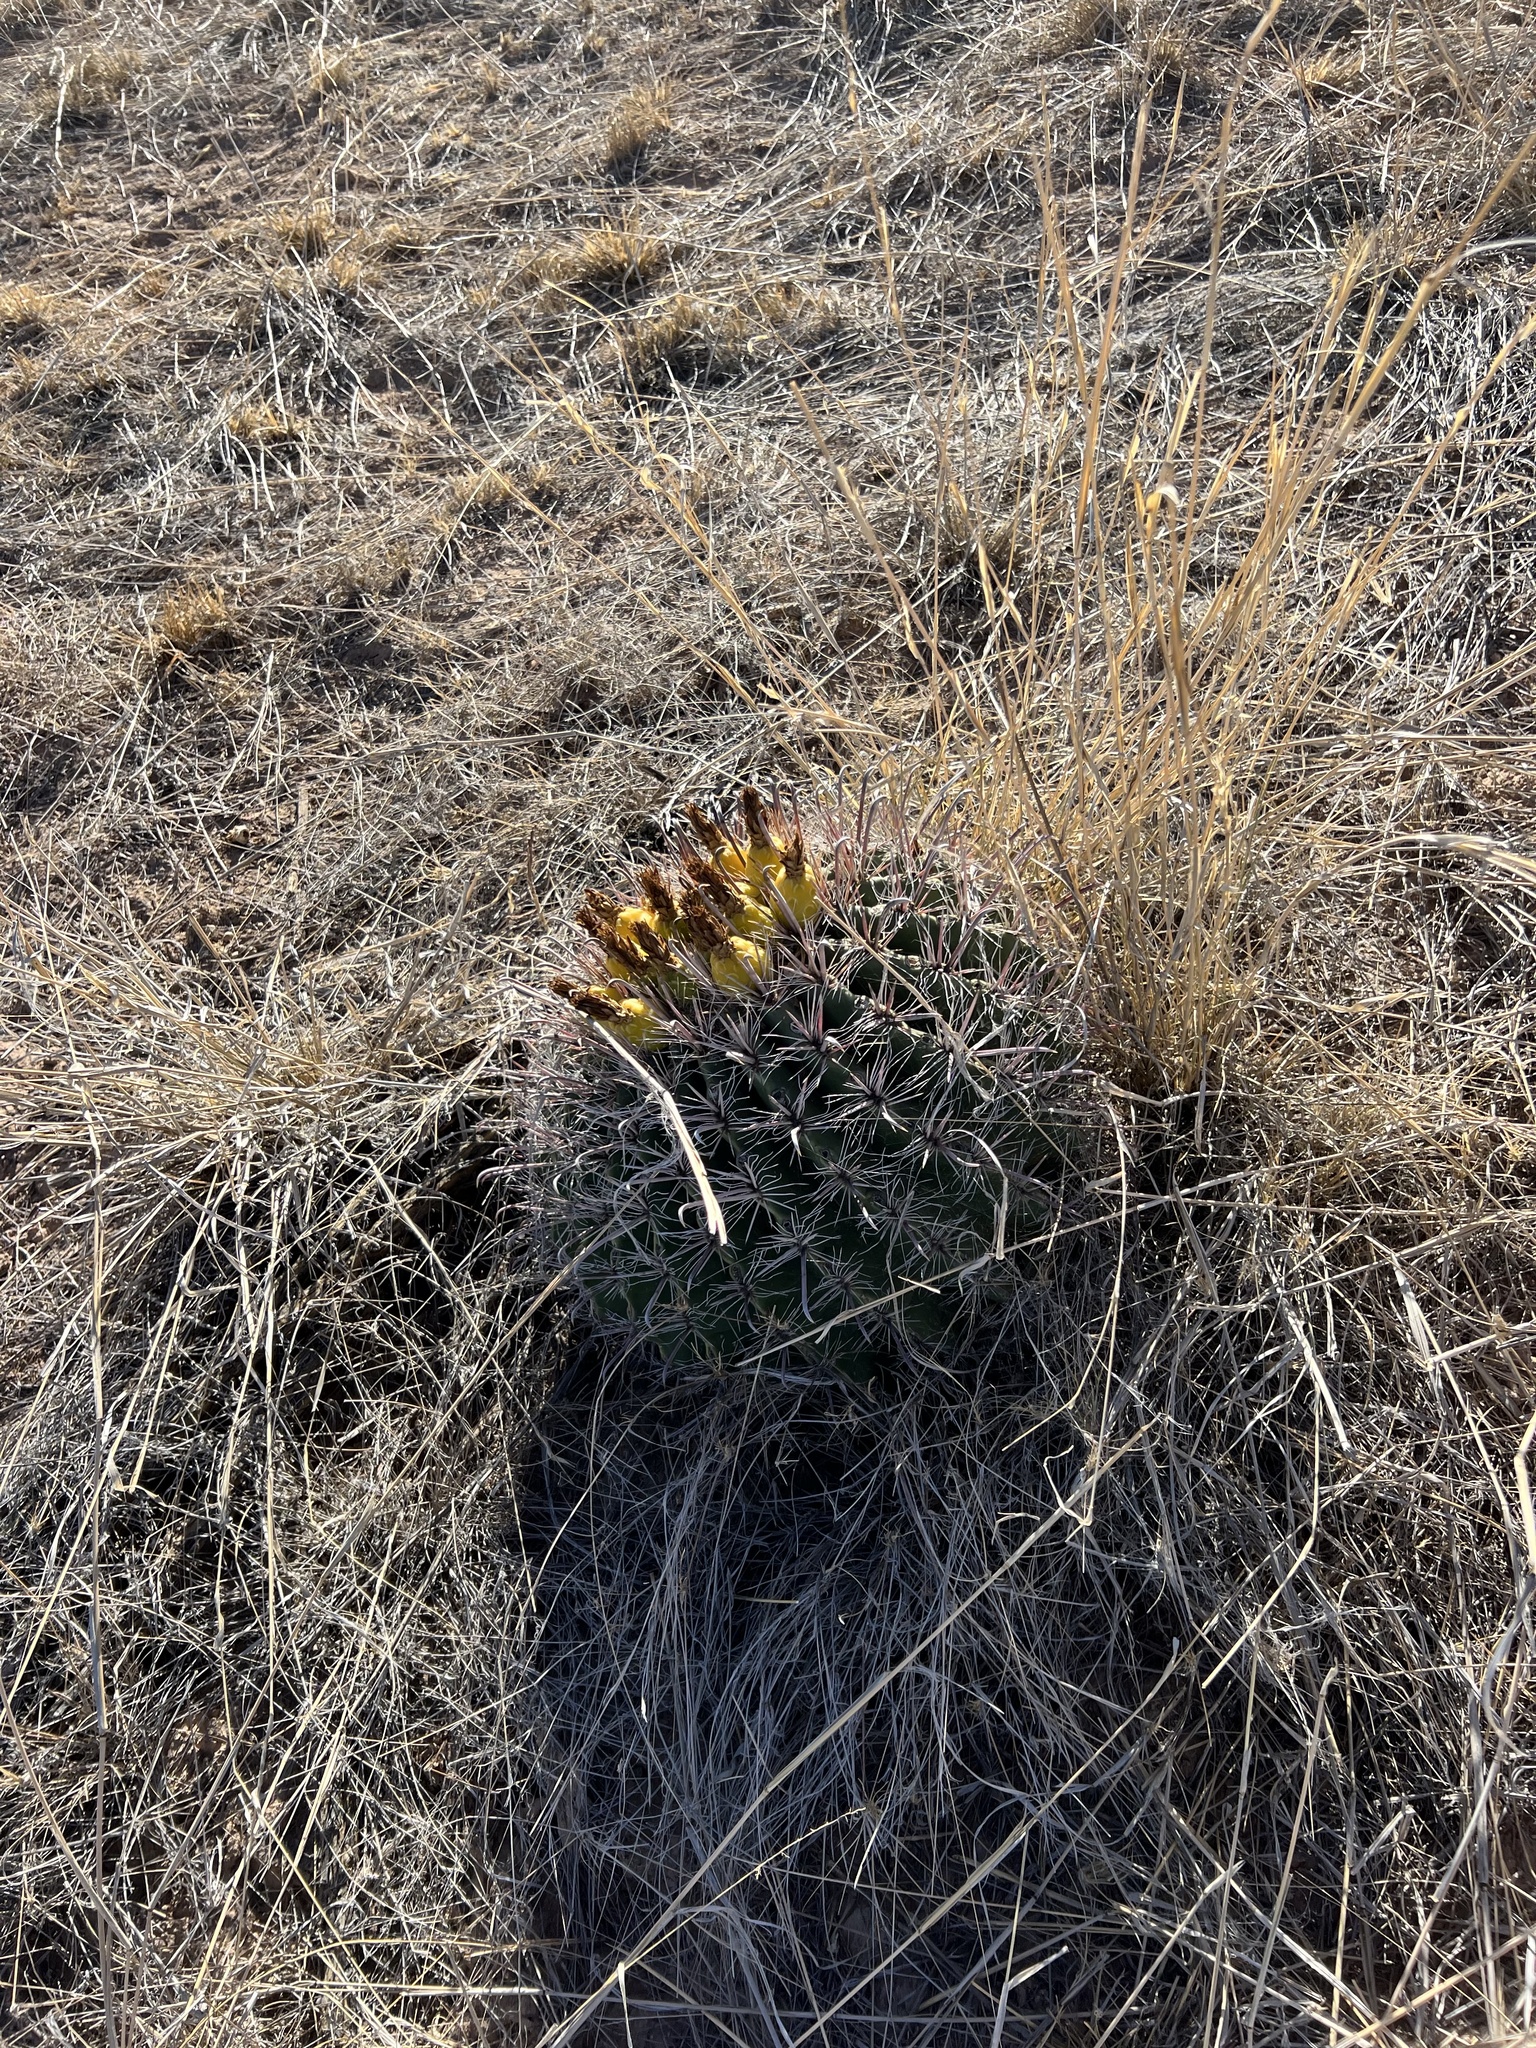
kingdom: Plantae
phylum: Tracheophyta
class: Magnoliopsida
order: Caryophyllales
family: Cactaceae
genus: Ferocactus
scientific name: Ferocactus wislizeni
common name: Candy barrel cactus
